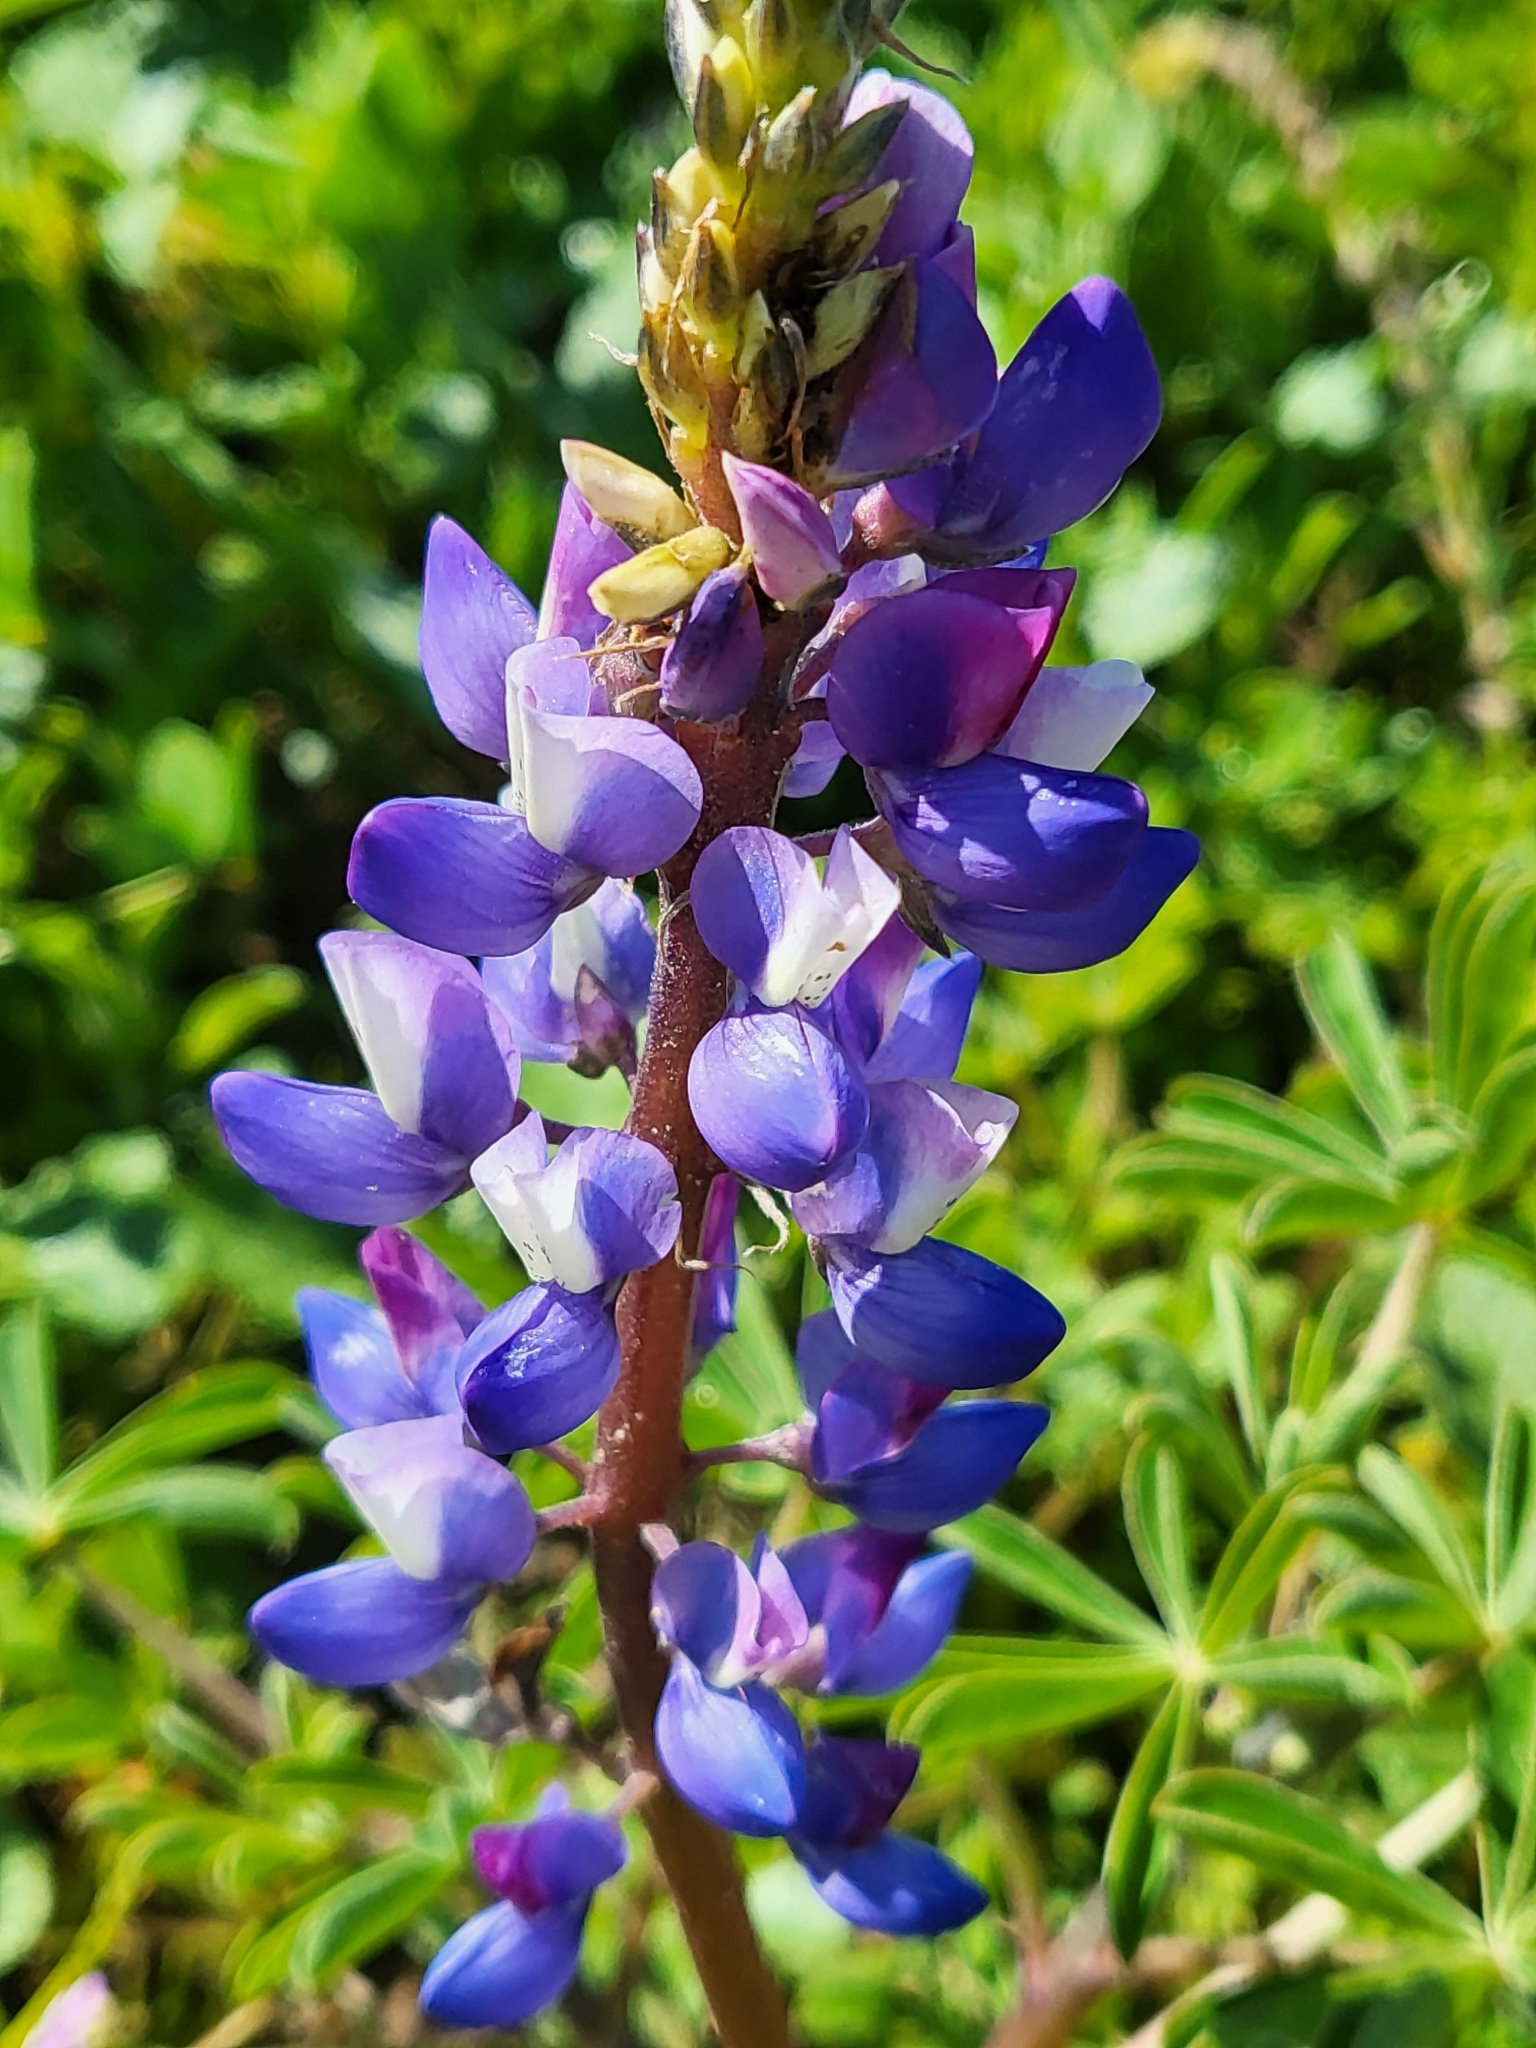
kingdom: Plantae
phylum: Tracheophyta
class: Magnoliopsida
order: Fabales
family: Fabaceae
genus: Lupinus
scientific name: Lupinus succulentus
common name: Arroyo lupine
